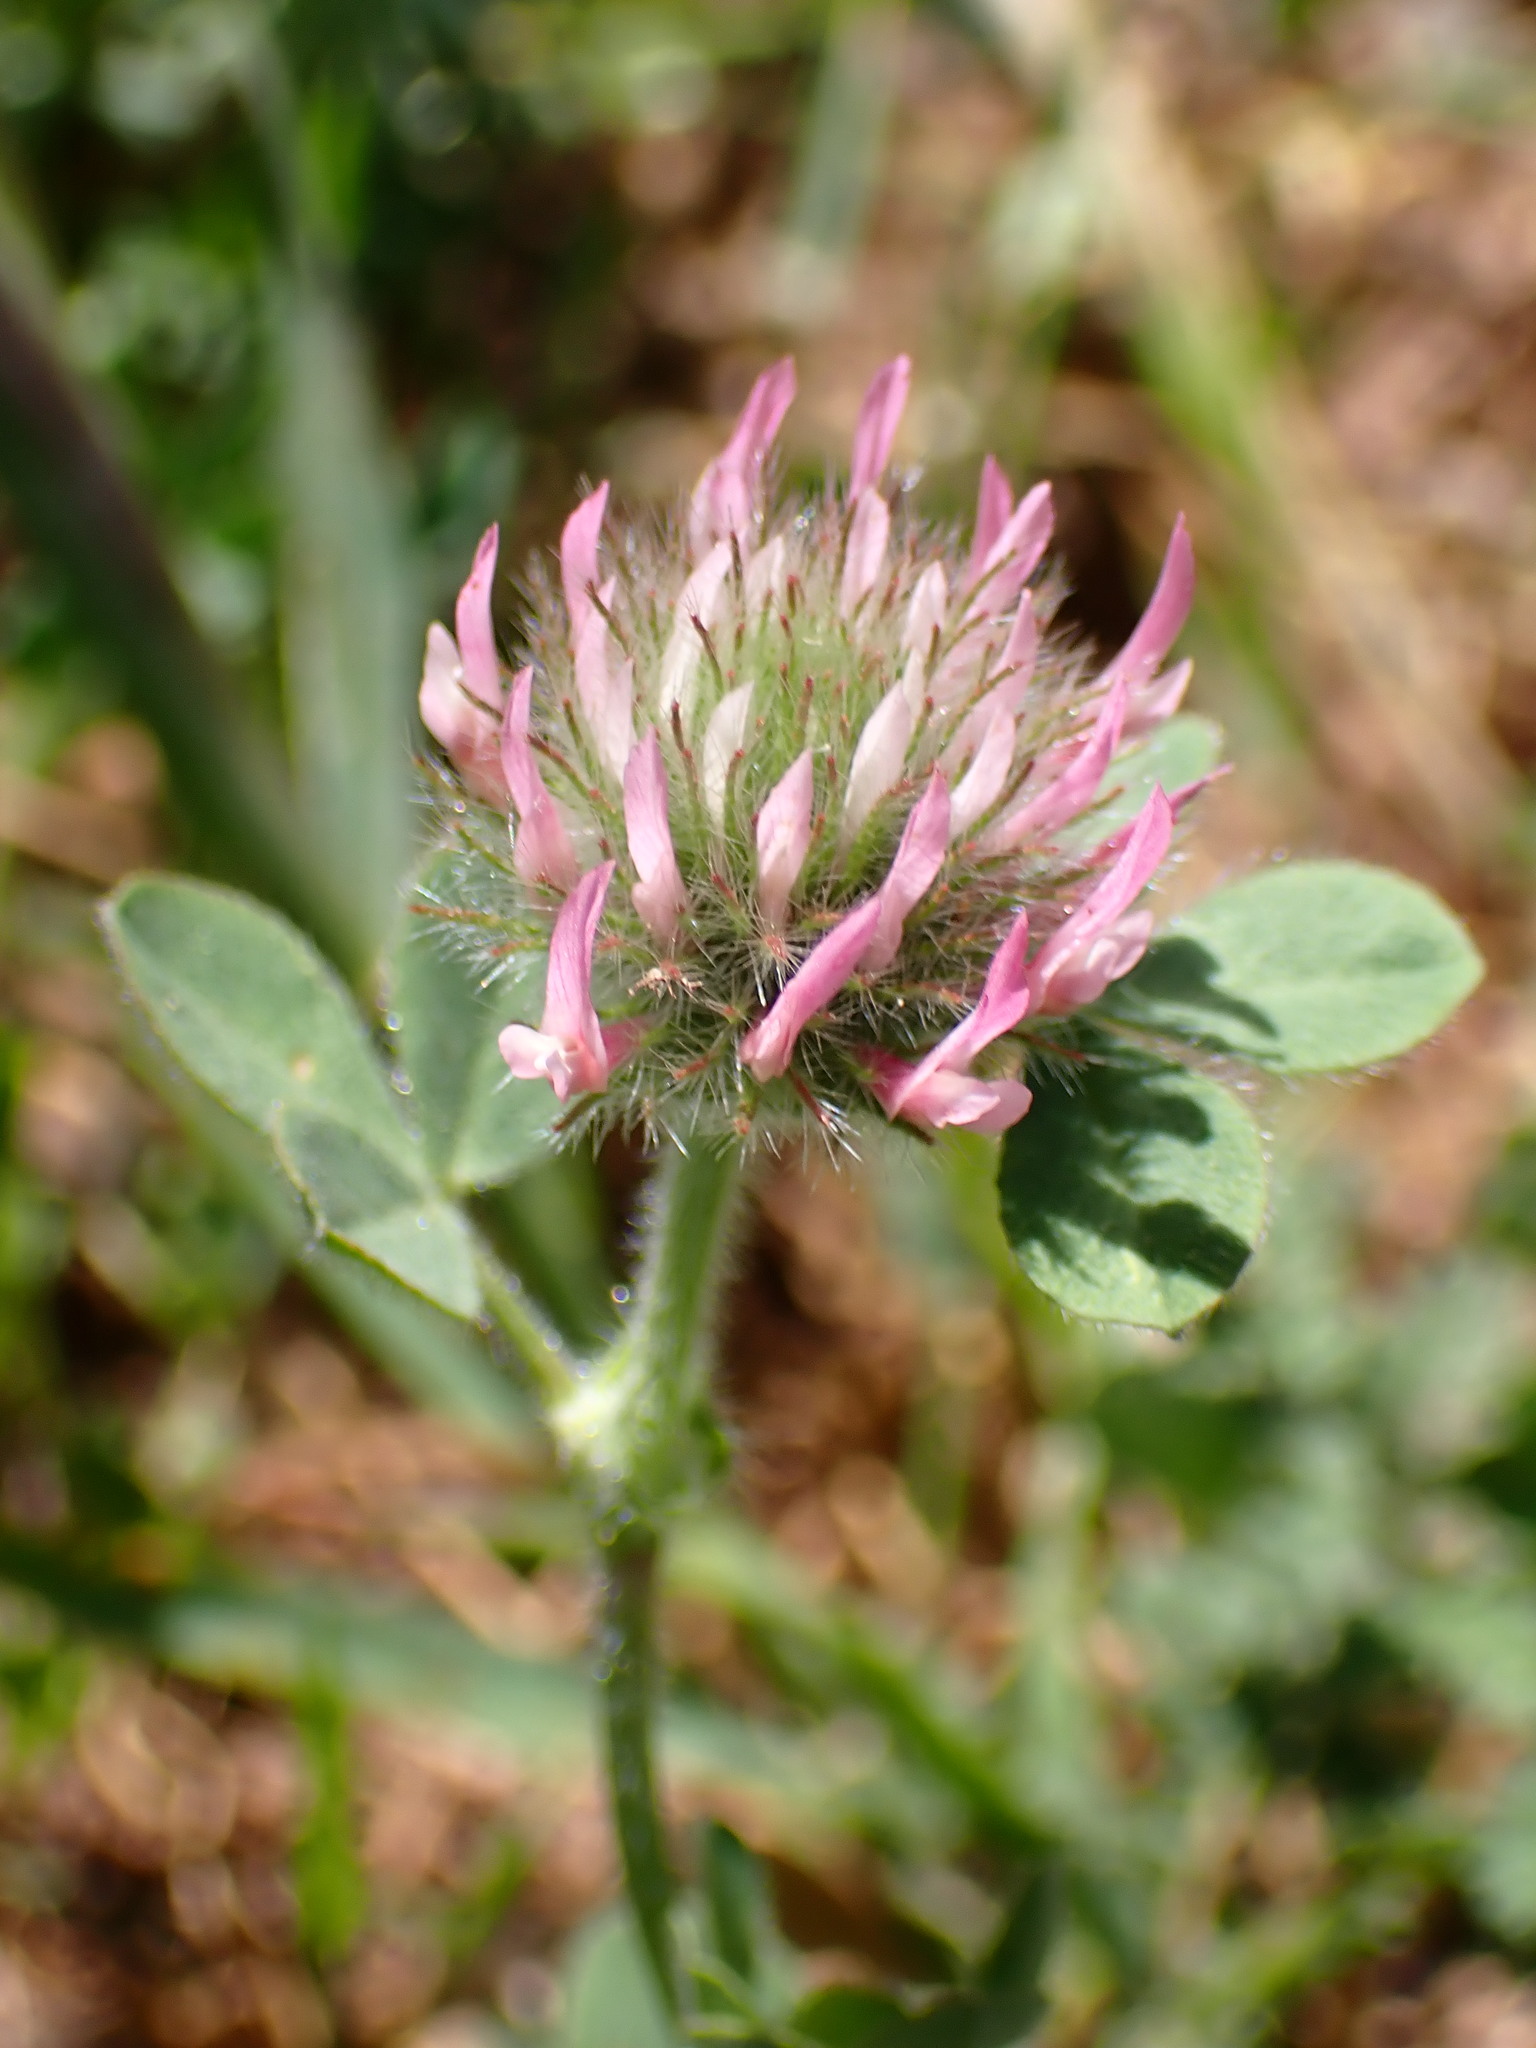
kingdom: Plantae
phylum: Tracheophyta
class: Magnoliopsida
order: Fabales
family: Fabaceae
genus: Trifolium
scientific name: Trifolium hirtum
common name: Rose clover
